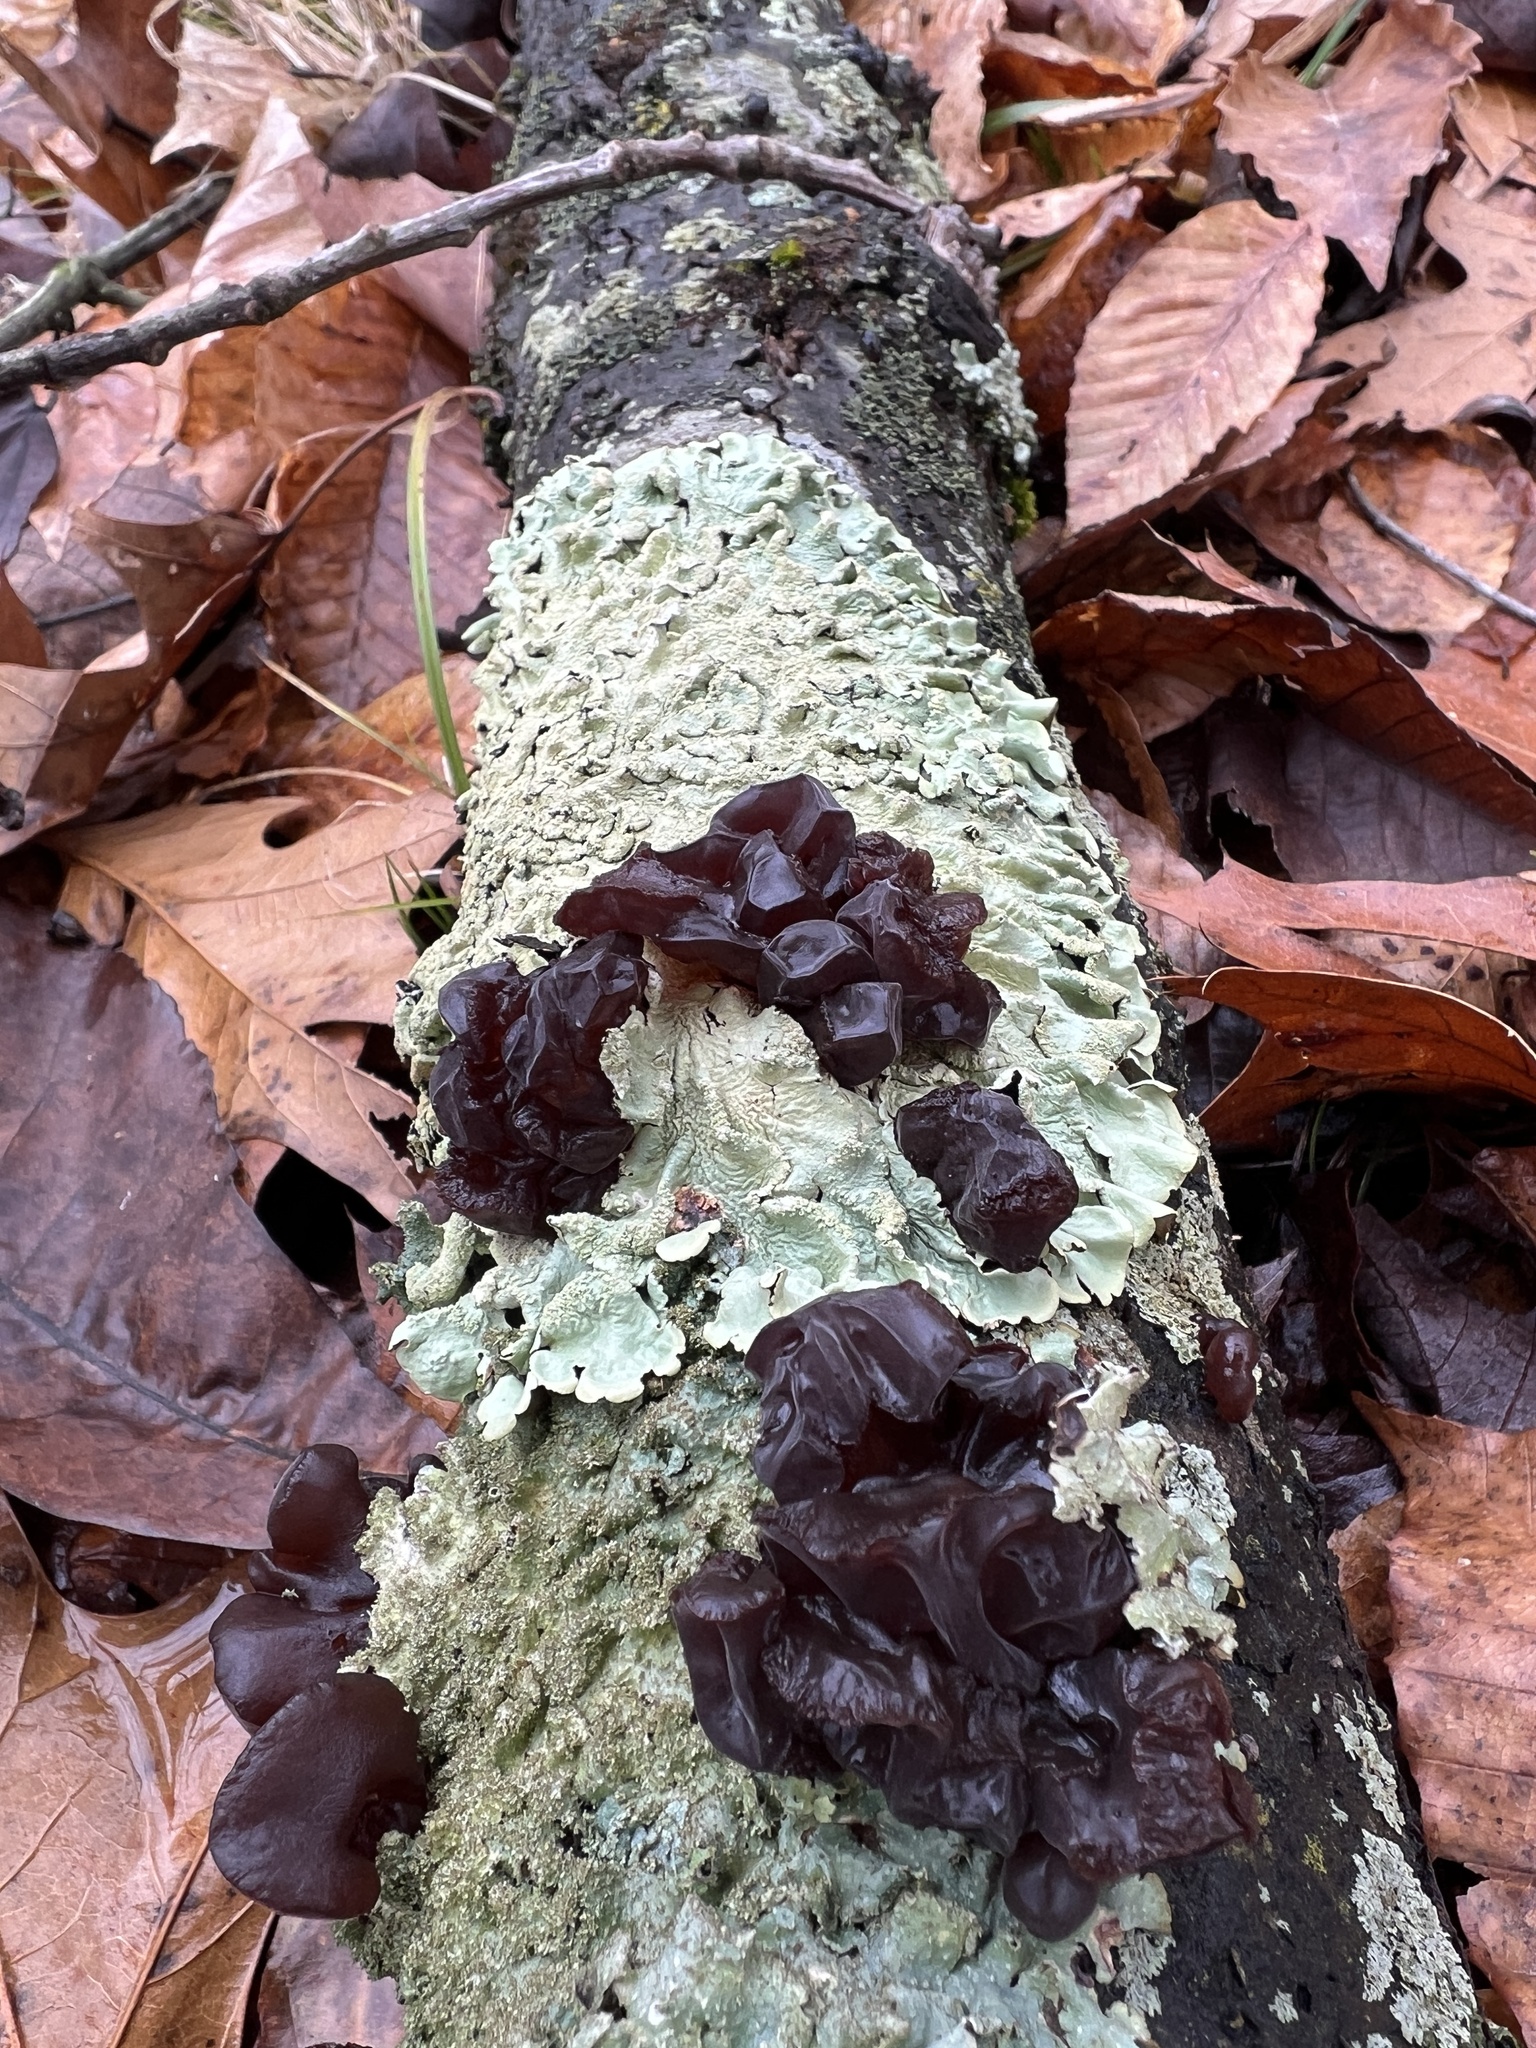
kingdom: Fungi
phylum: Basidiomycota
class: Agaricomycetes
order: Auriculariales
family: Auriculariaceae
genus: Exidia
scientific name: Exidia
